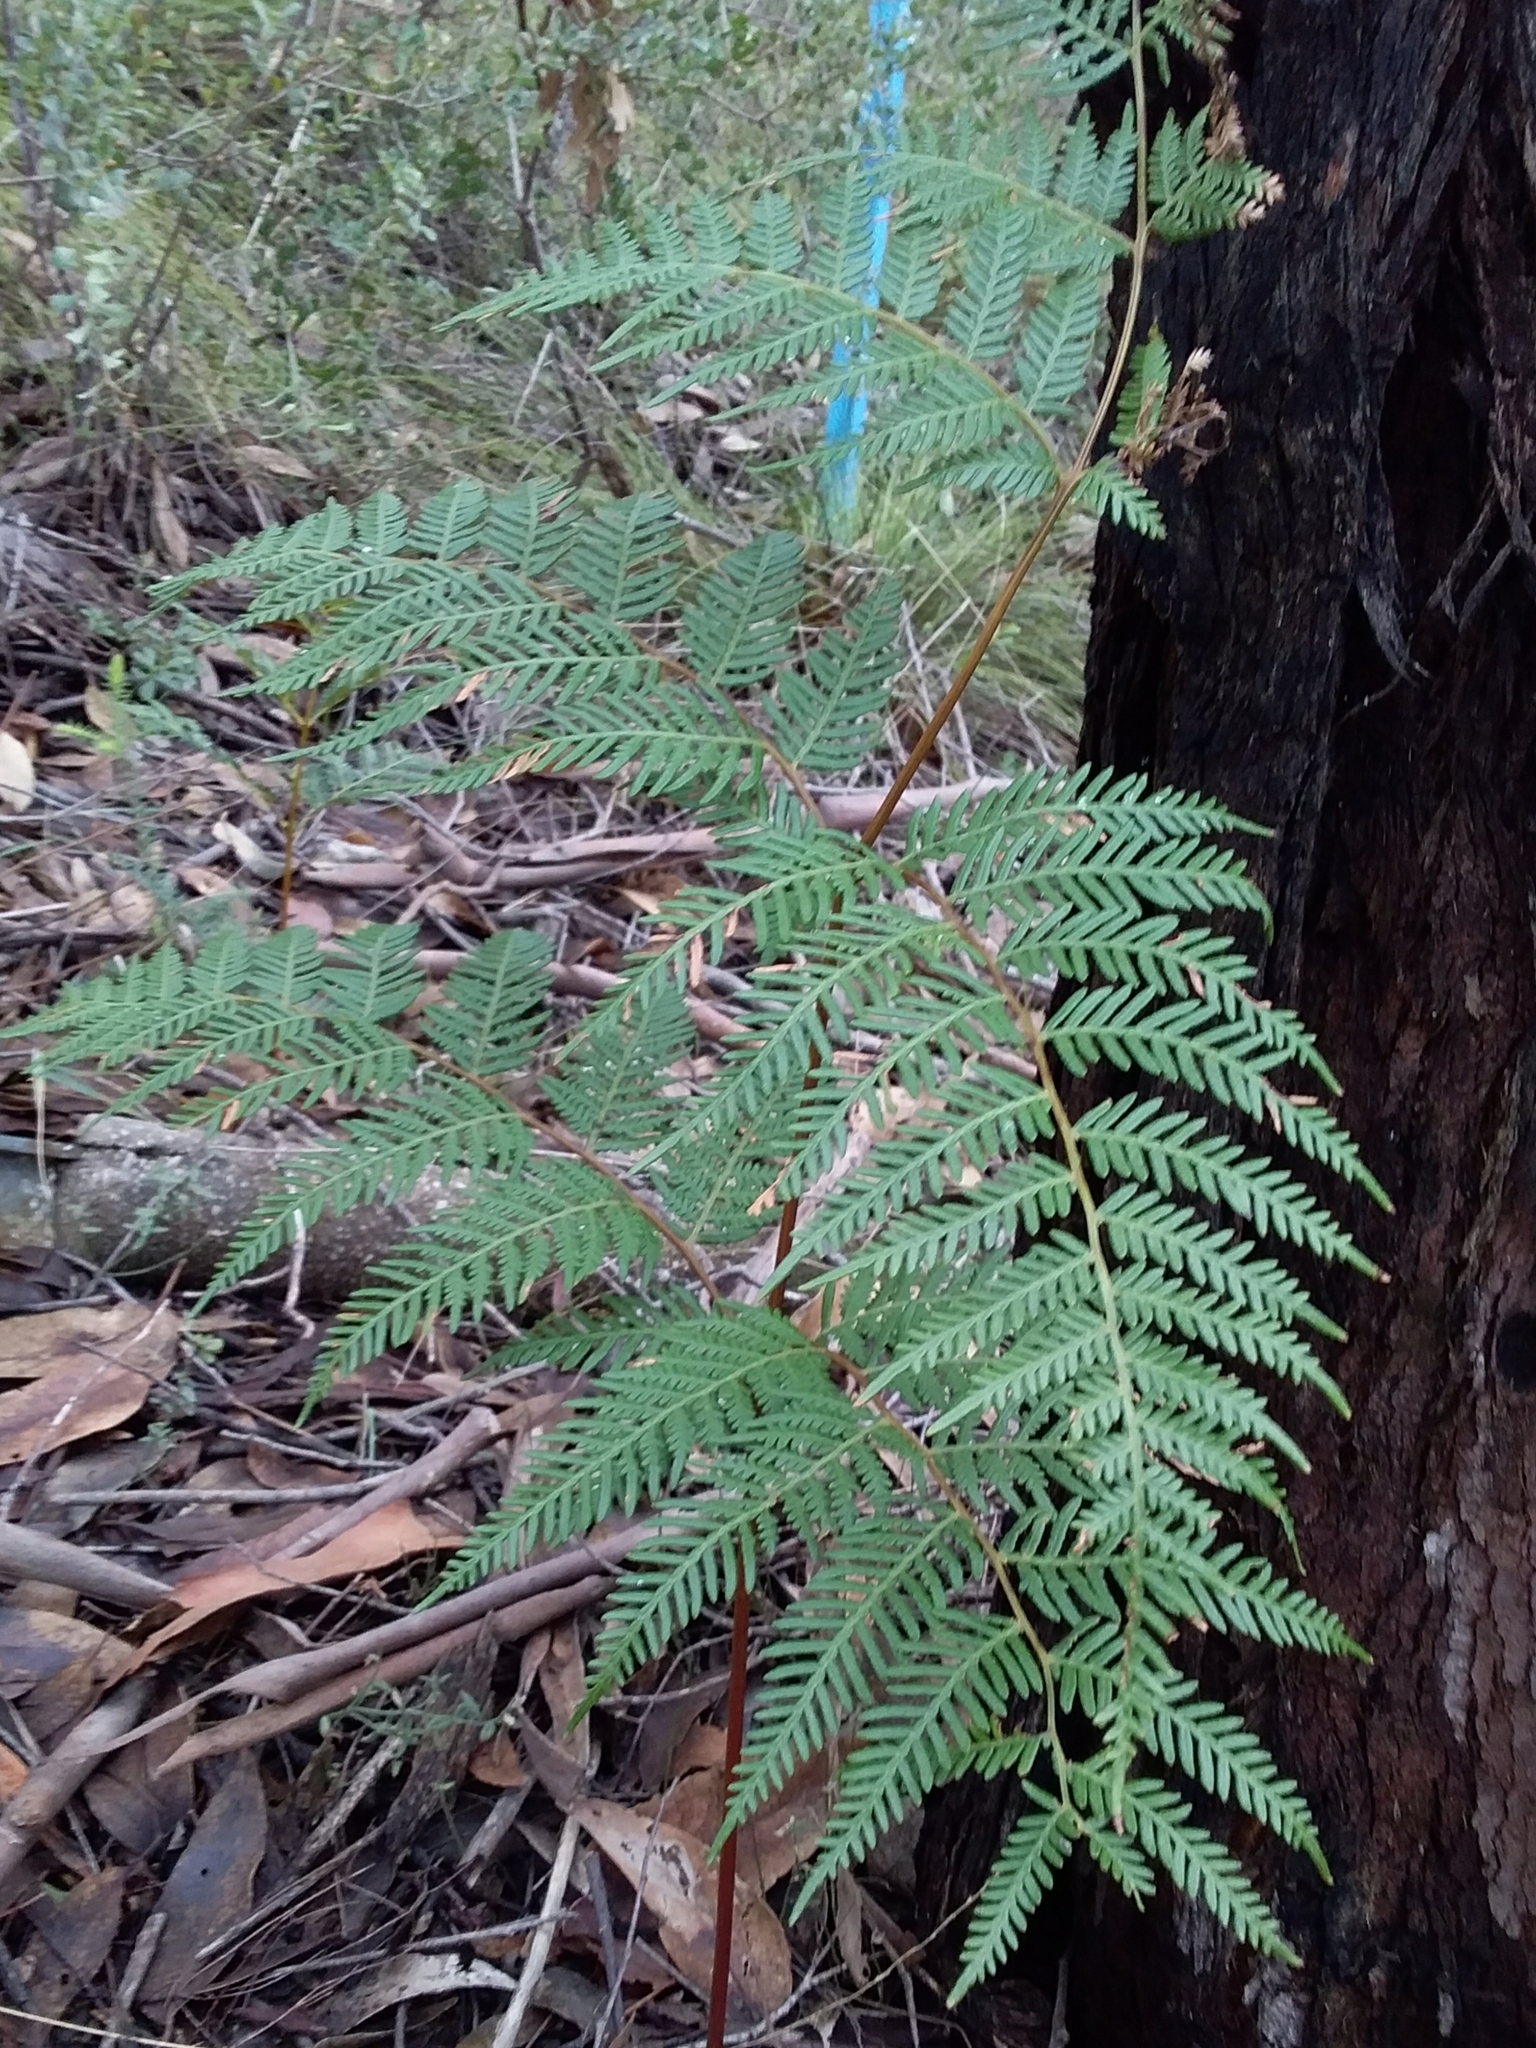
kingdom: Plantae
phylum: Tracheophyta
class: Polypodiopsida
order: Polypodiales
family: Dennstaedtiaceae
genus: Pteridium
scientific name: Pteridium esculentum
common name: Bracken fern
